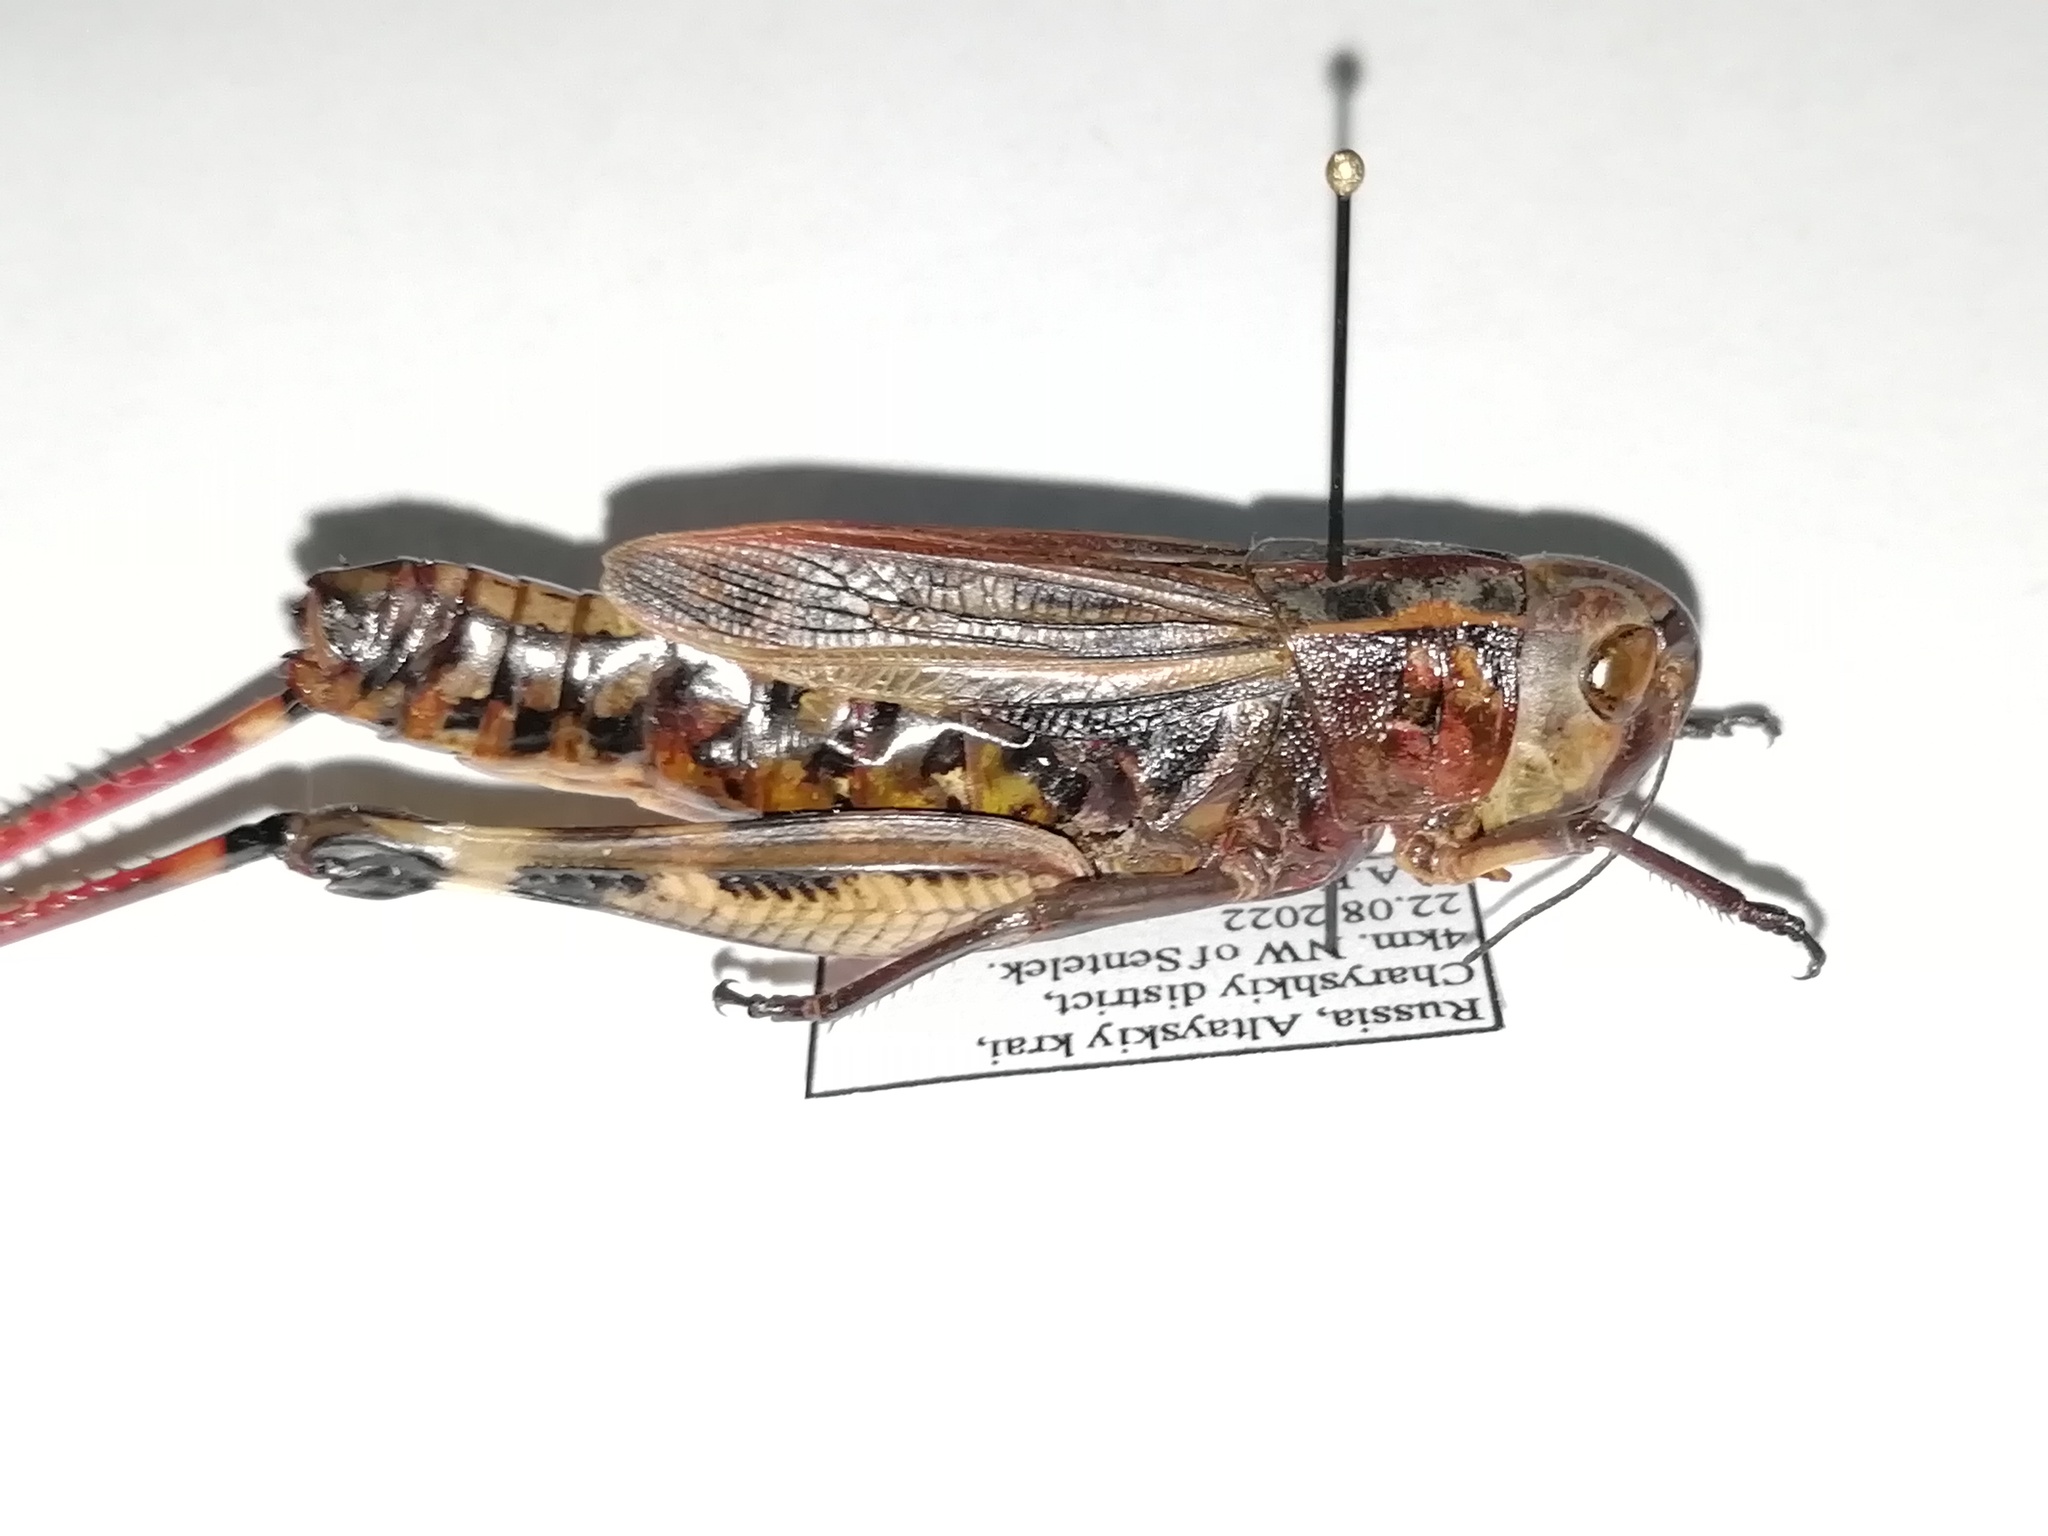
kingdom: Animalia
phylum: Arthropoda
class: Insecta
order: Orthoptera
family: Acrididae
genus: Arcyptera
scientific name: Arcyptera fusca
